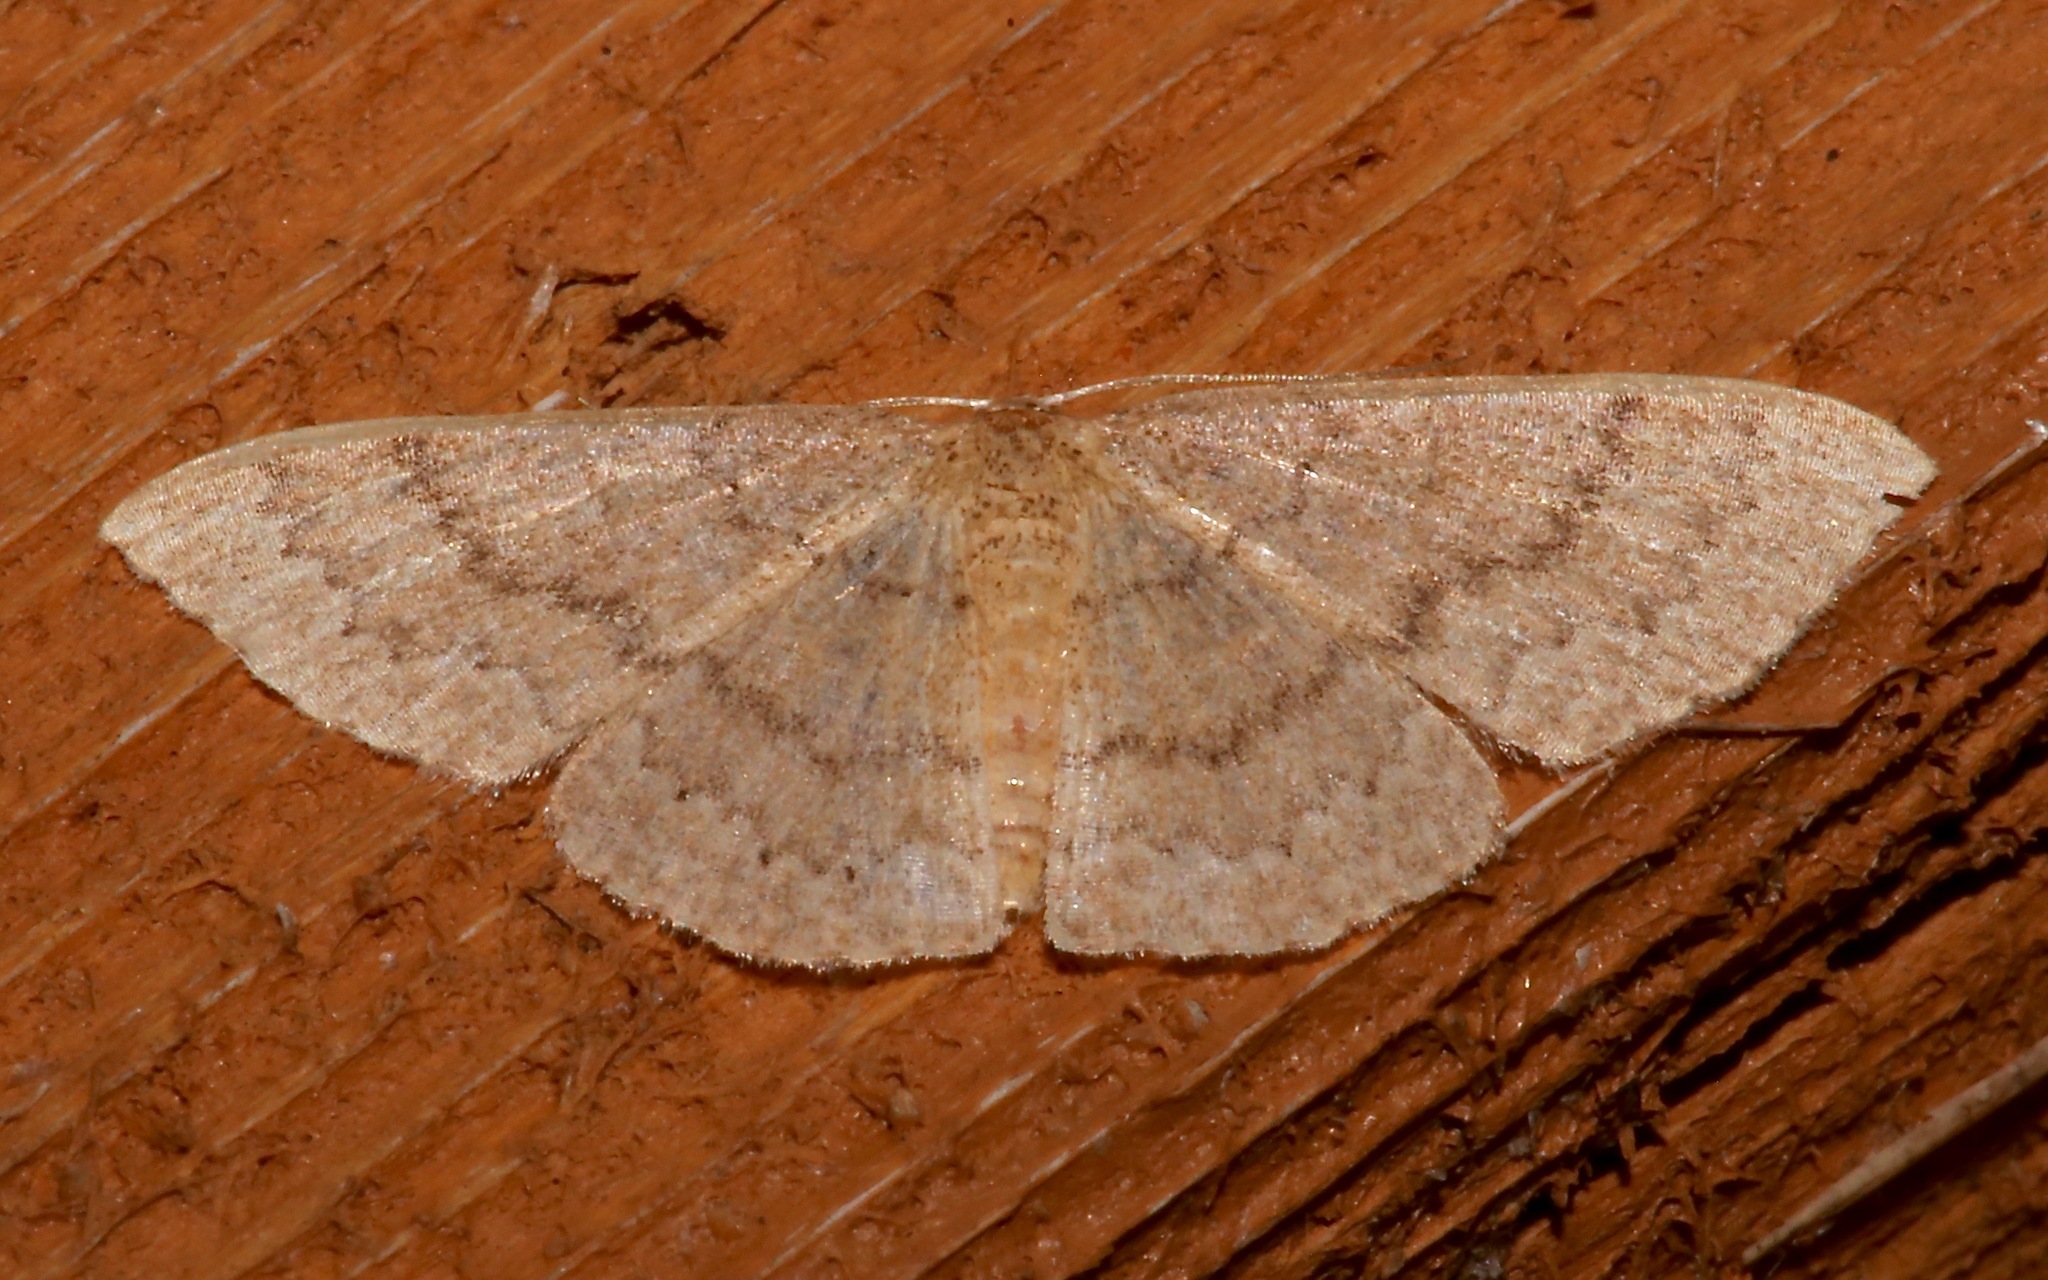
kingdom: Animalia
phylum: Arthropoda
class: Insecta
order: Lepidoptera
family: Geometridae
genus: Pleuroprucha
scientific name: Pleuroprucha insulsaria
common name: Common tan wave
